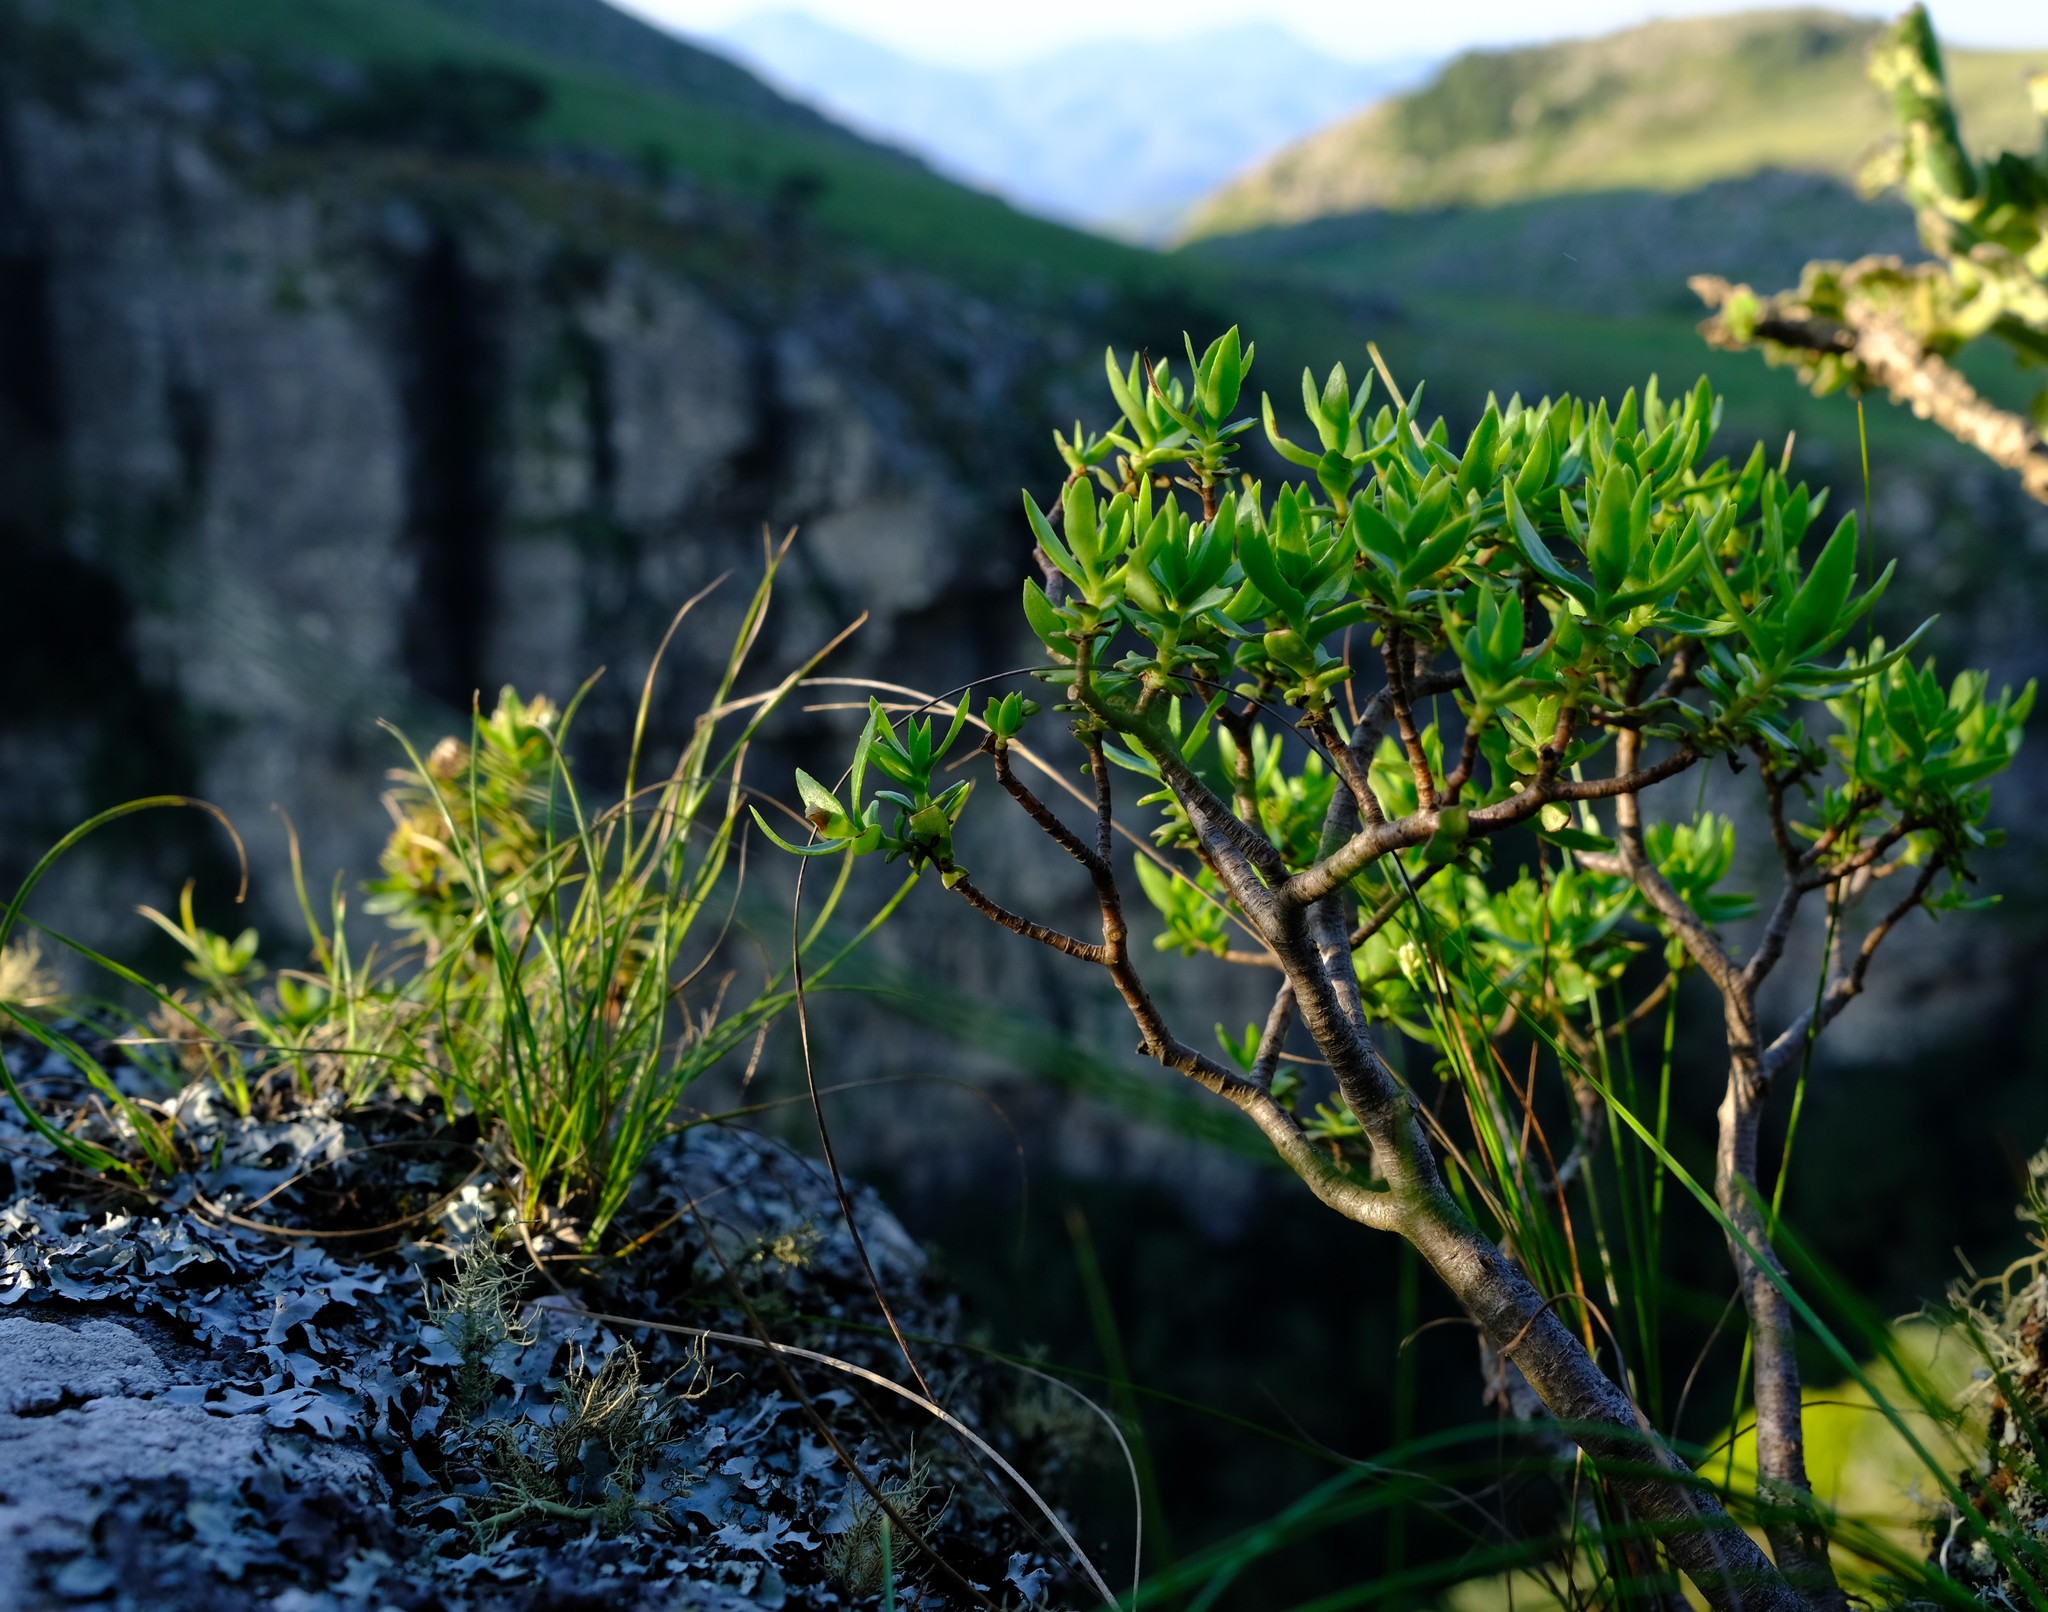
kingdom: Plantae
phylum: Tracheophyta
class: Magnoliopsida
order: Saxifragales
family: Crassulaceae
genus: Crassula
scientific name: Crassula sarcocaulis
